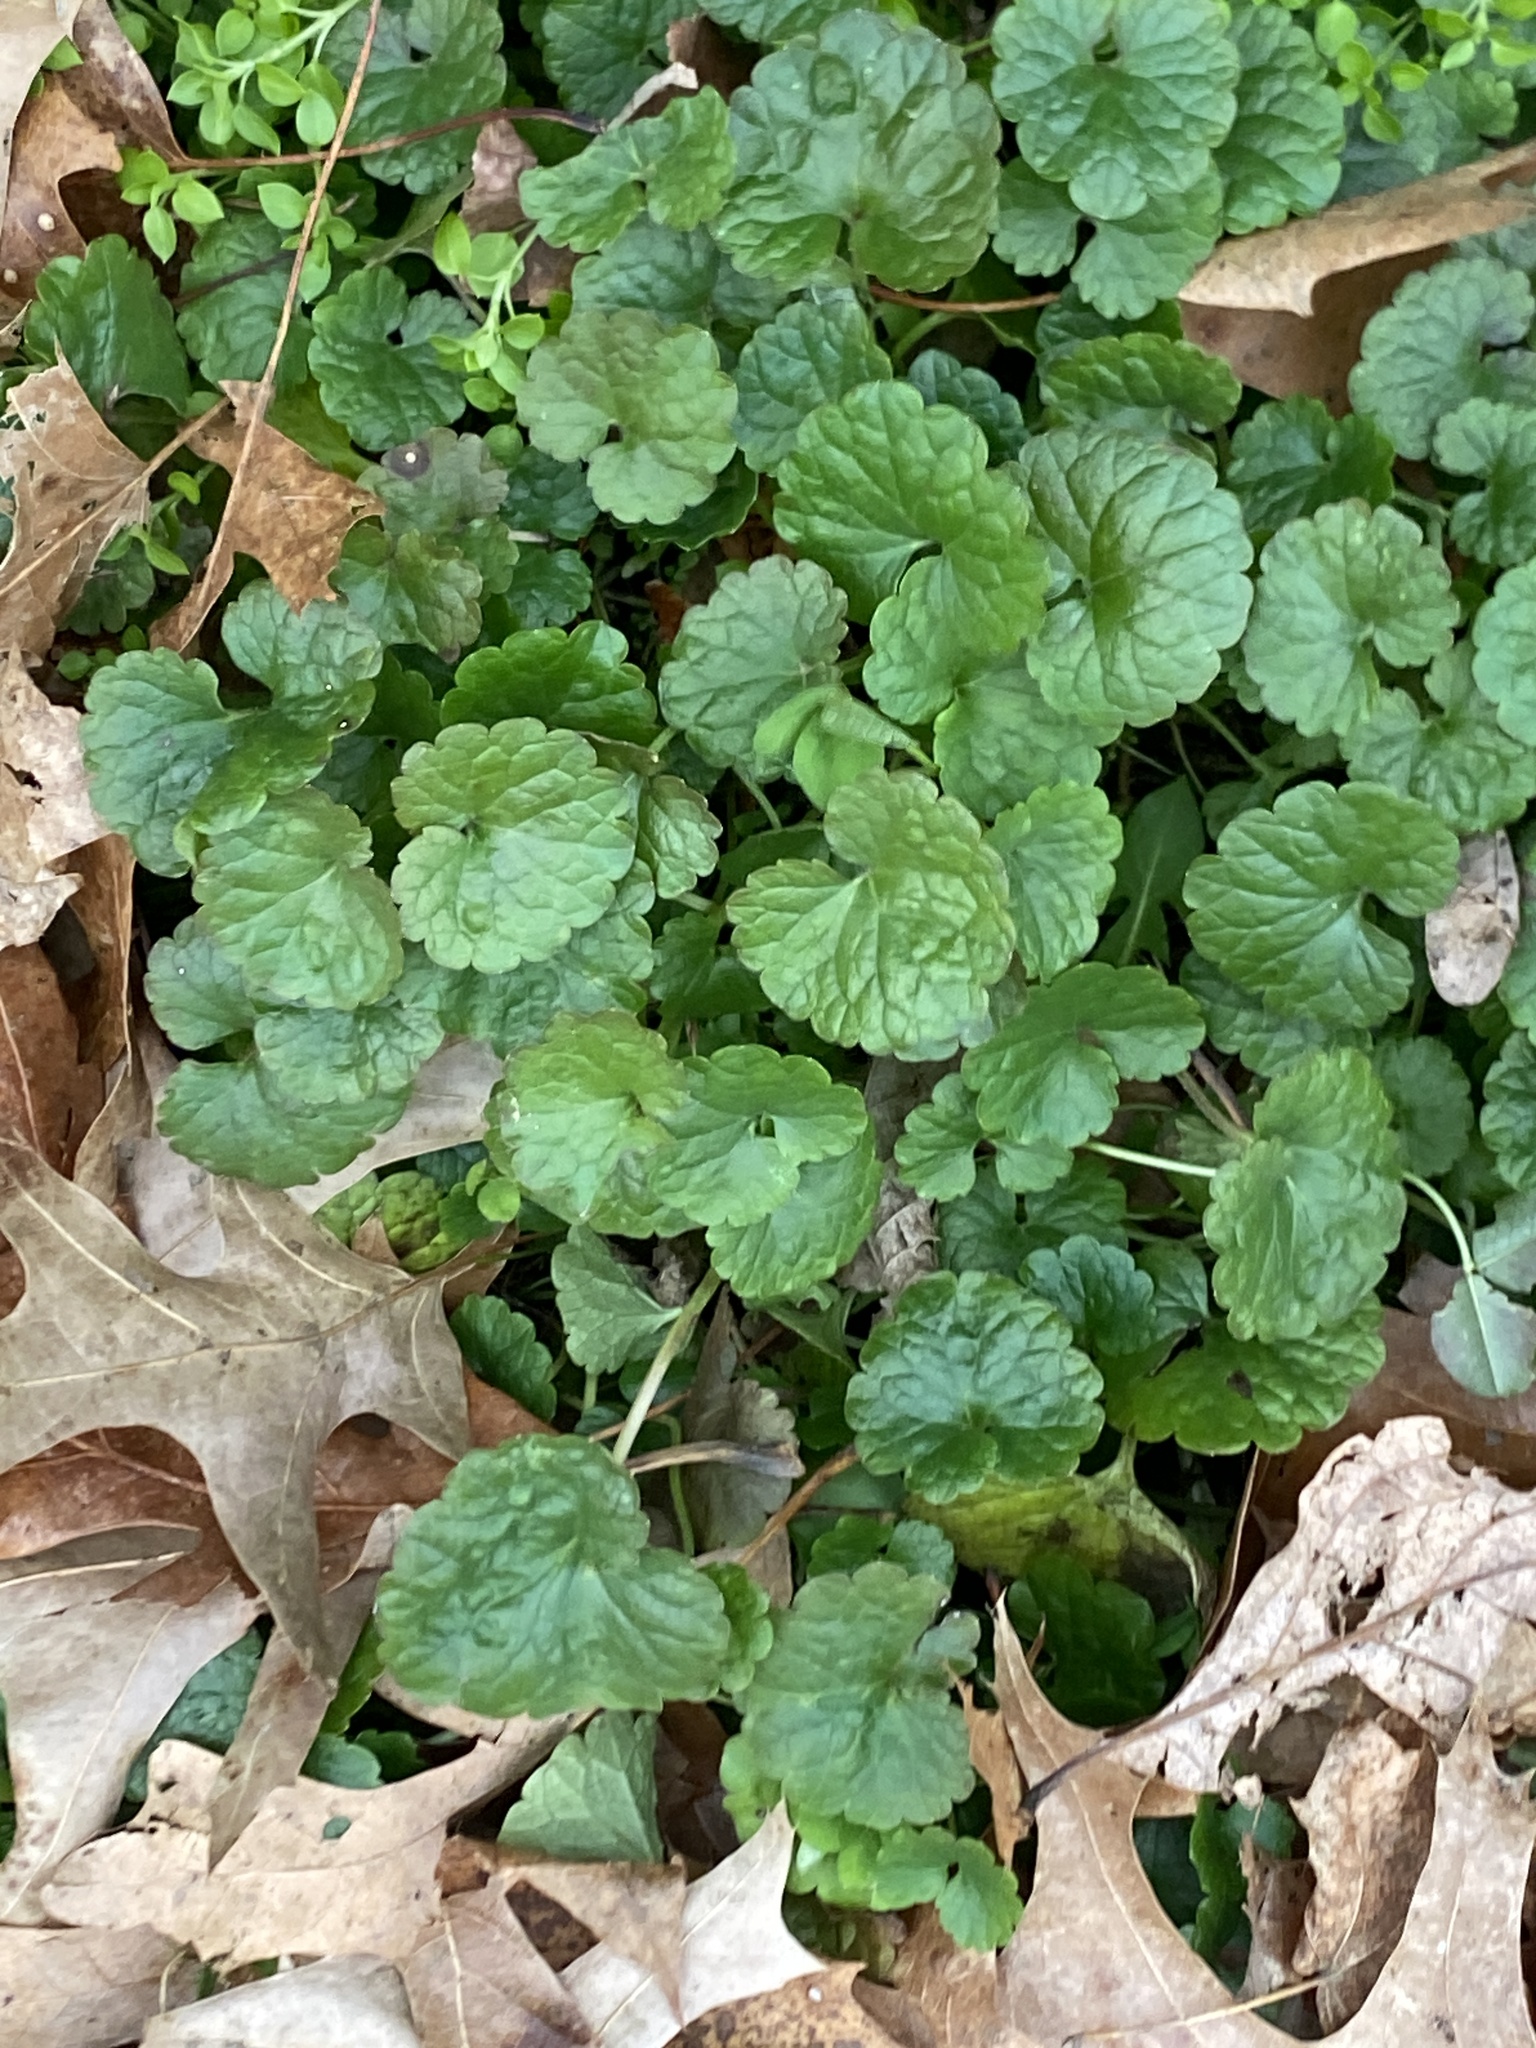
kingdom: Plantae
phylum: Tracheophyta
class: Magnoliopsida
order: Lamiales
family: Lamiaceae
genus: Glechoma
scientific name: Glechoma hederacea
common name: Ground ivy
